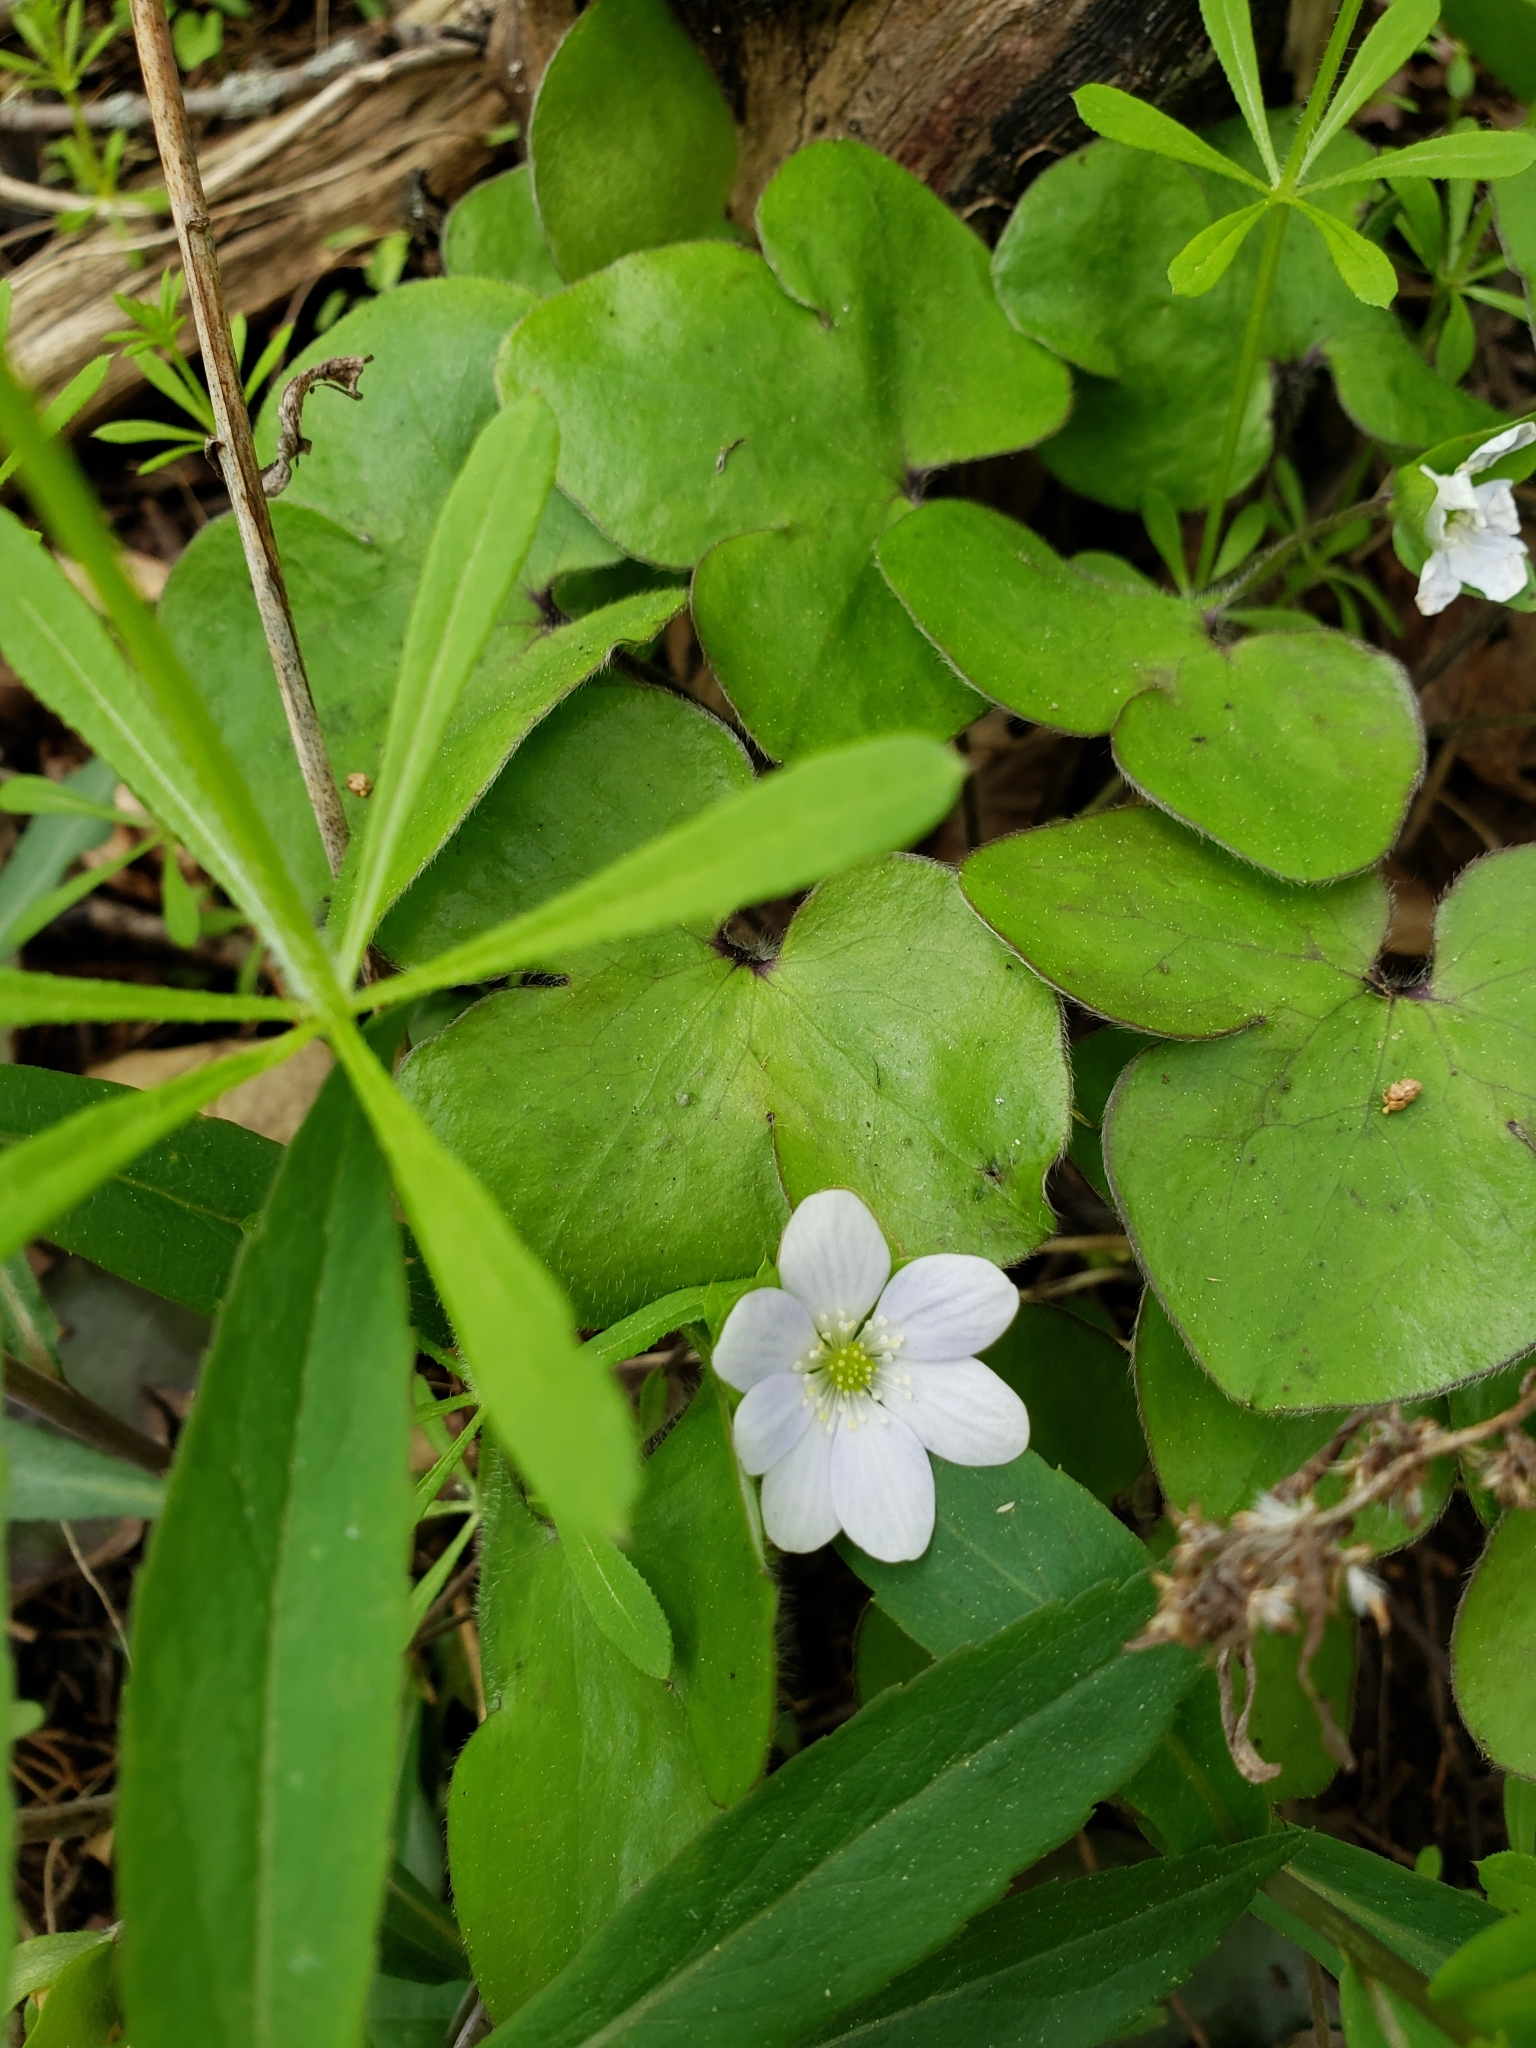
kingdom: Plantae
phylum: Tracheophyta
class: Magnoliopsida
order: Ranunculales
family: Ranunculaceae
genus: Hepatica
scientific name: Hepatica americana
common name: American hepatica
